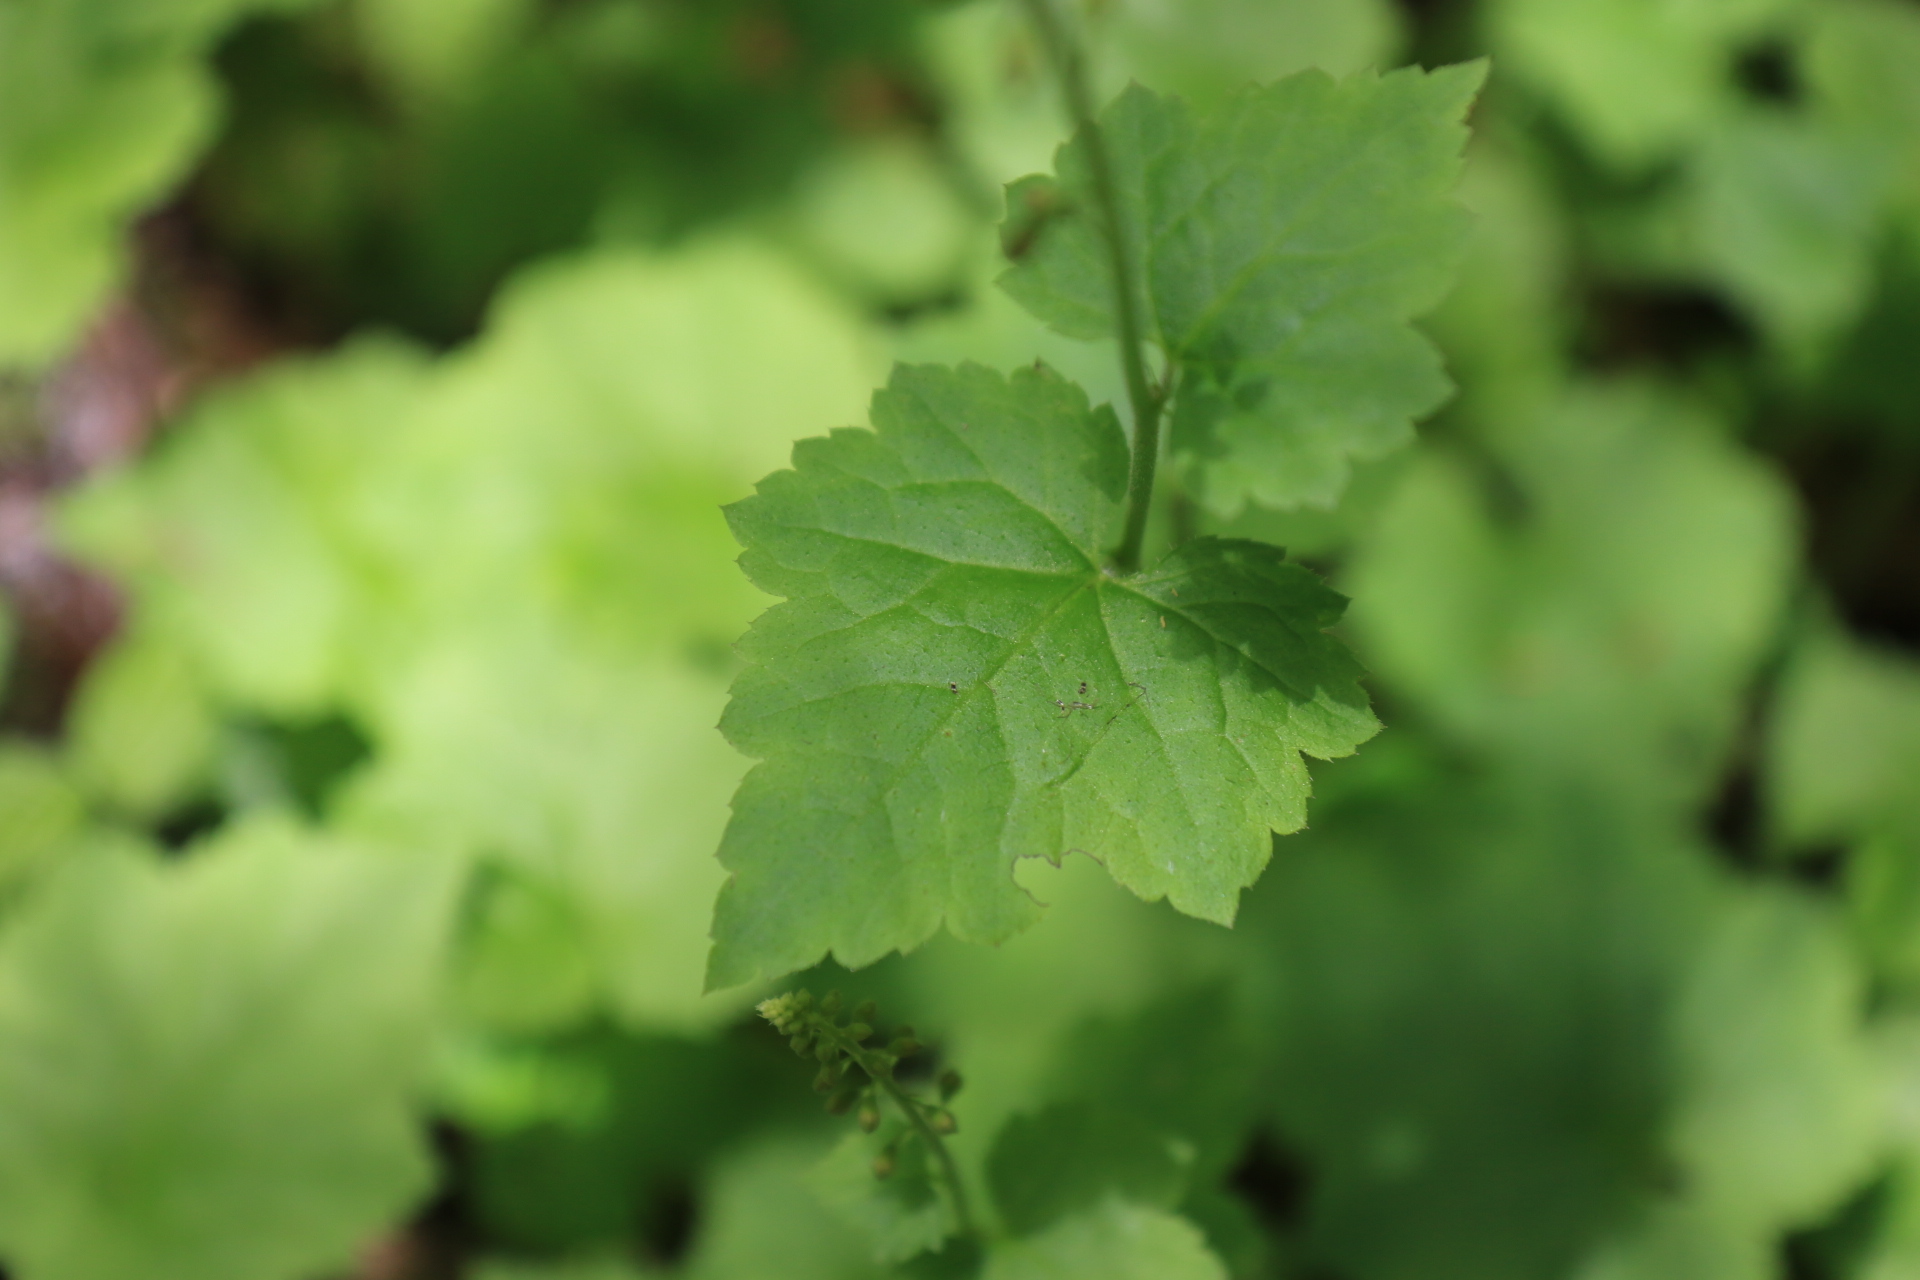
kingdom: Plantae
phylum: Tracheophyta
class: Magnoliopsida
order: Saxifragales
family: Saxifragaceae
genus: Tolmiea
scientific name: Tolmiea menziesii
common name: Pick-a-back-plant
